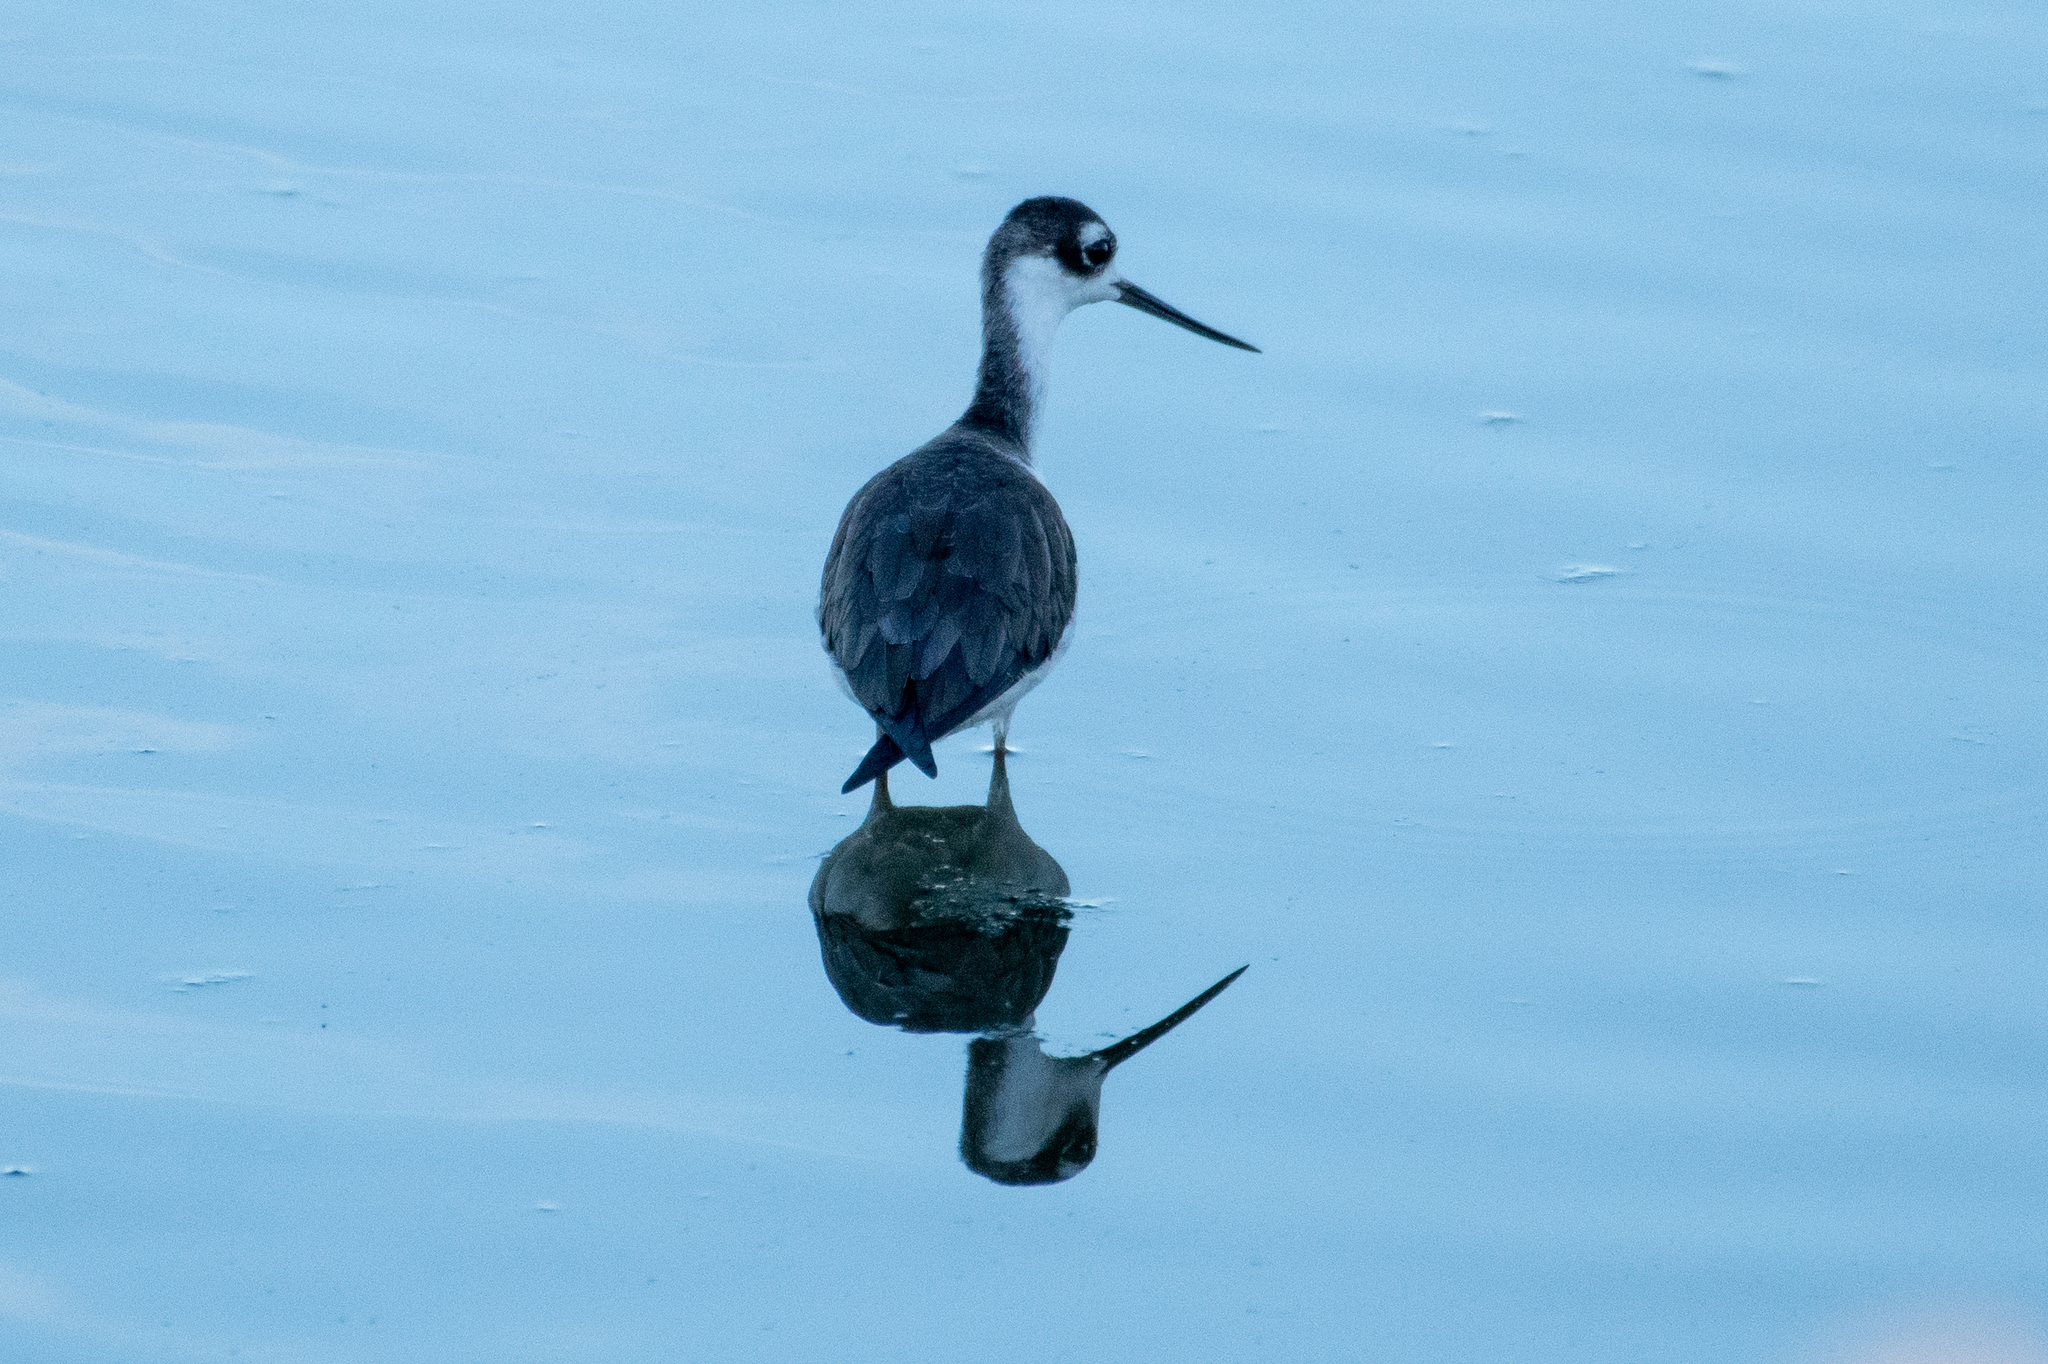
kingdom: Animalia
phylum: Chordata
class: Aves
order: Charadriiformes
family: Recurvirostridae
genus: Himantopus
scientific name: Himantopus mexicanus
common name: Black-necked stilt
